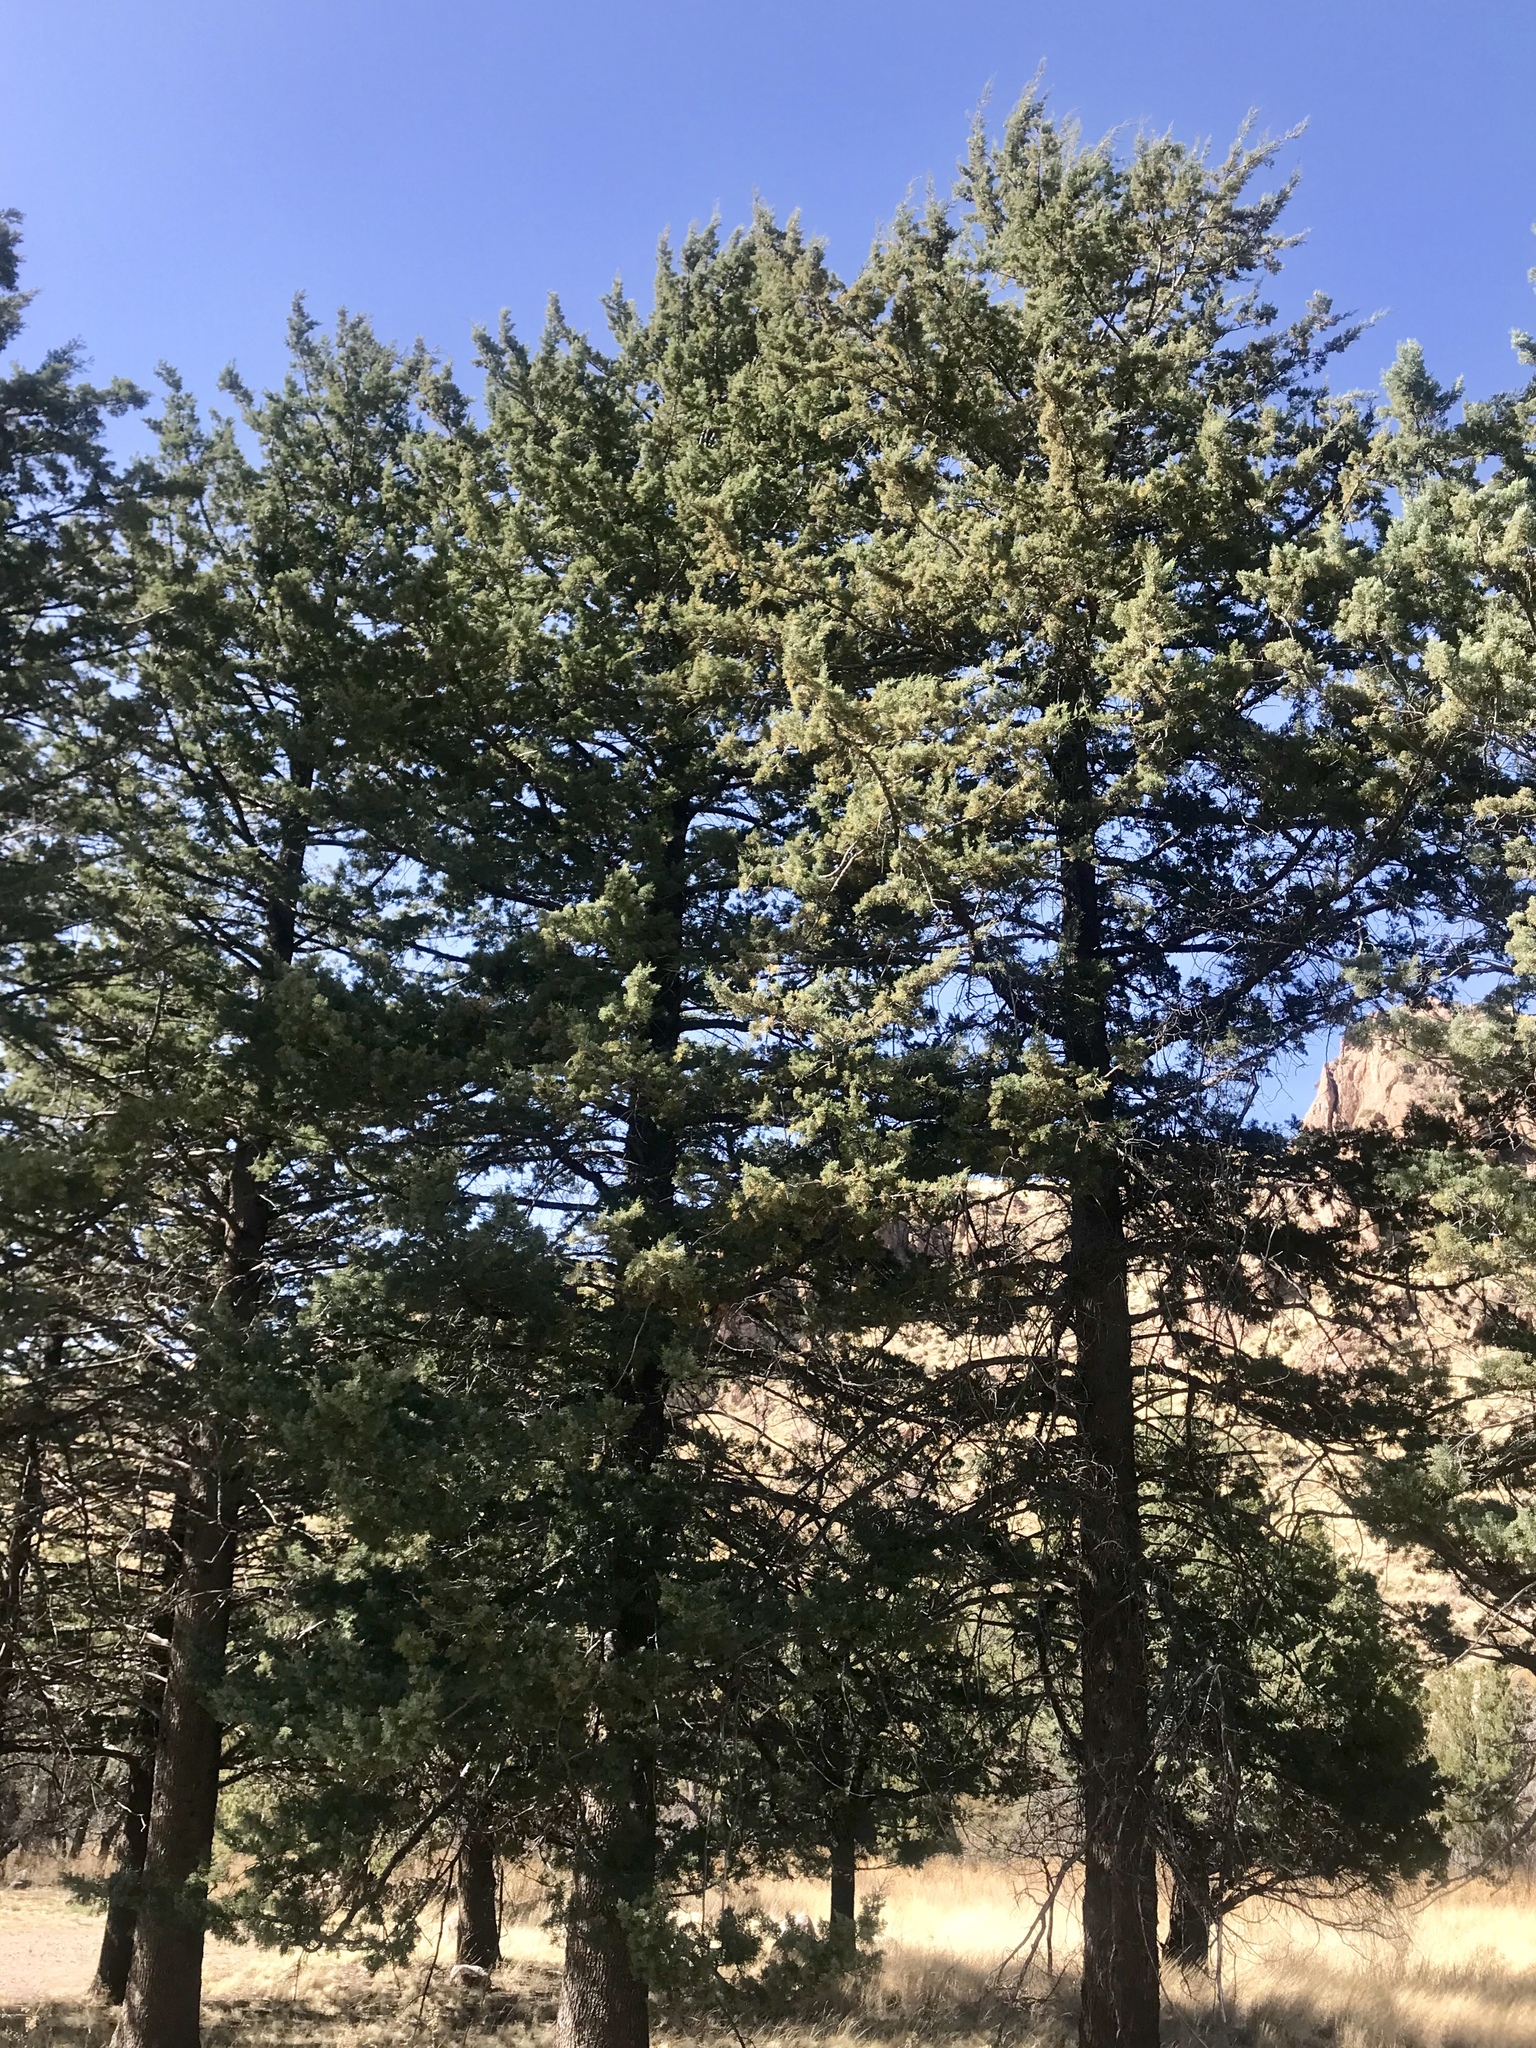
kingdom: Plantae
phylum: Tracheophyta
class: Pinopsida
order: Pinales
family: Cupressaceae
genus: Cupressus
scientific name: Cupressus arizonica
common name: Arizona cypress
